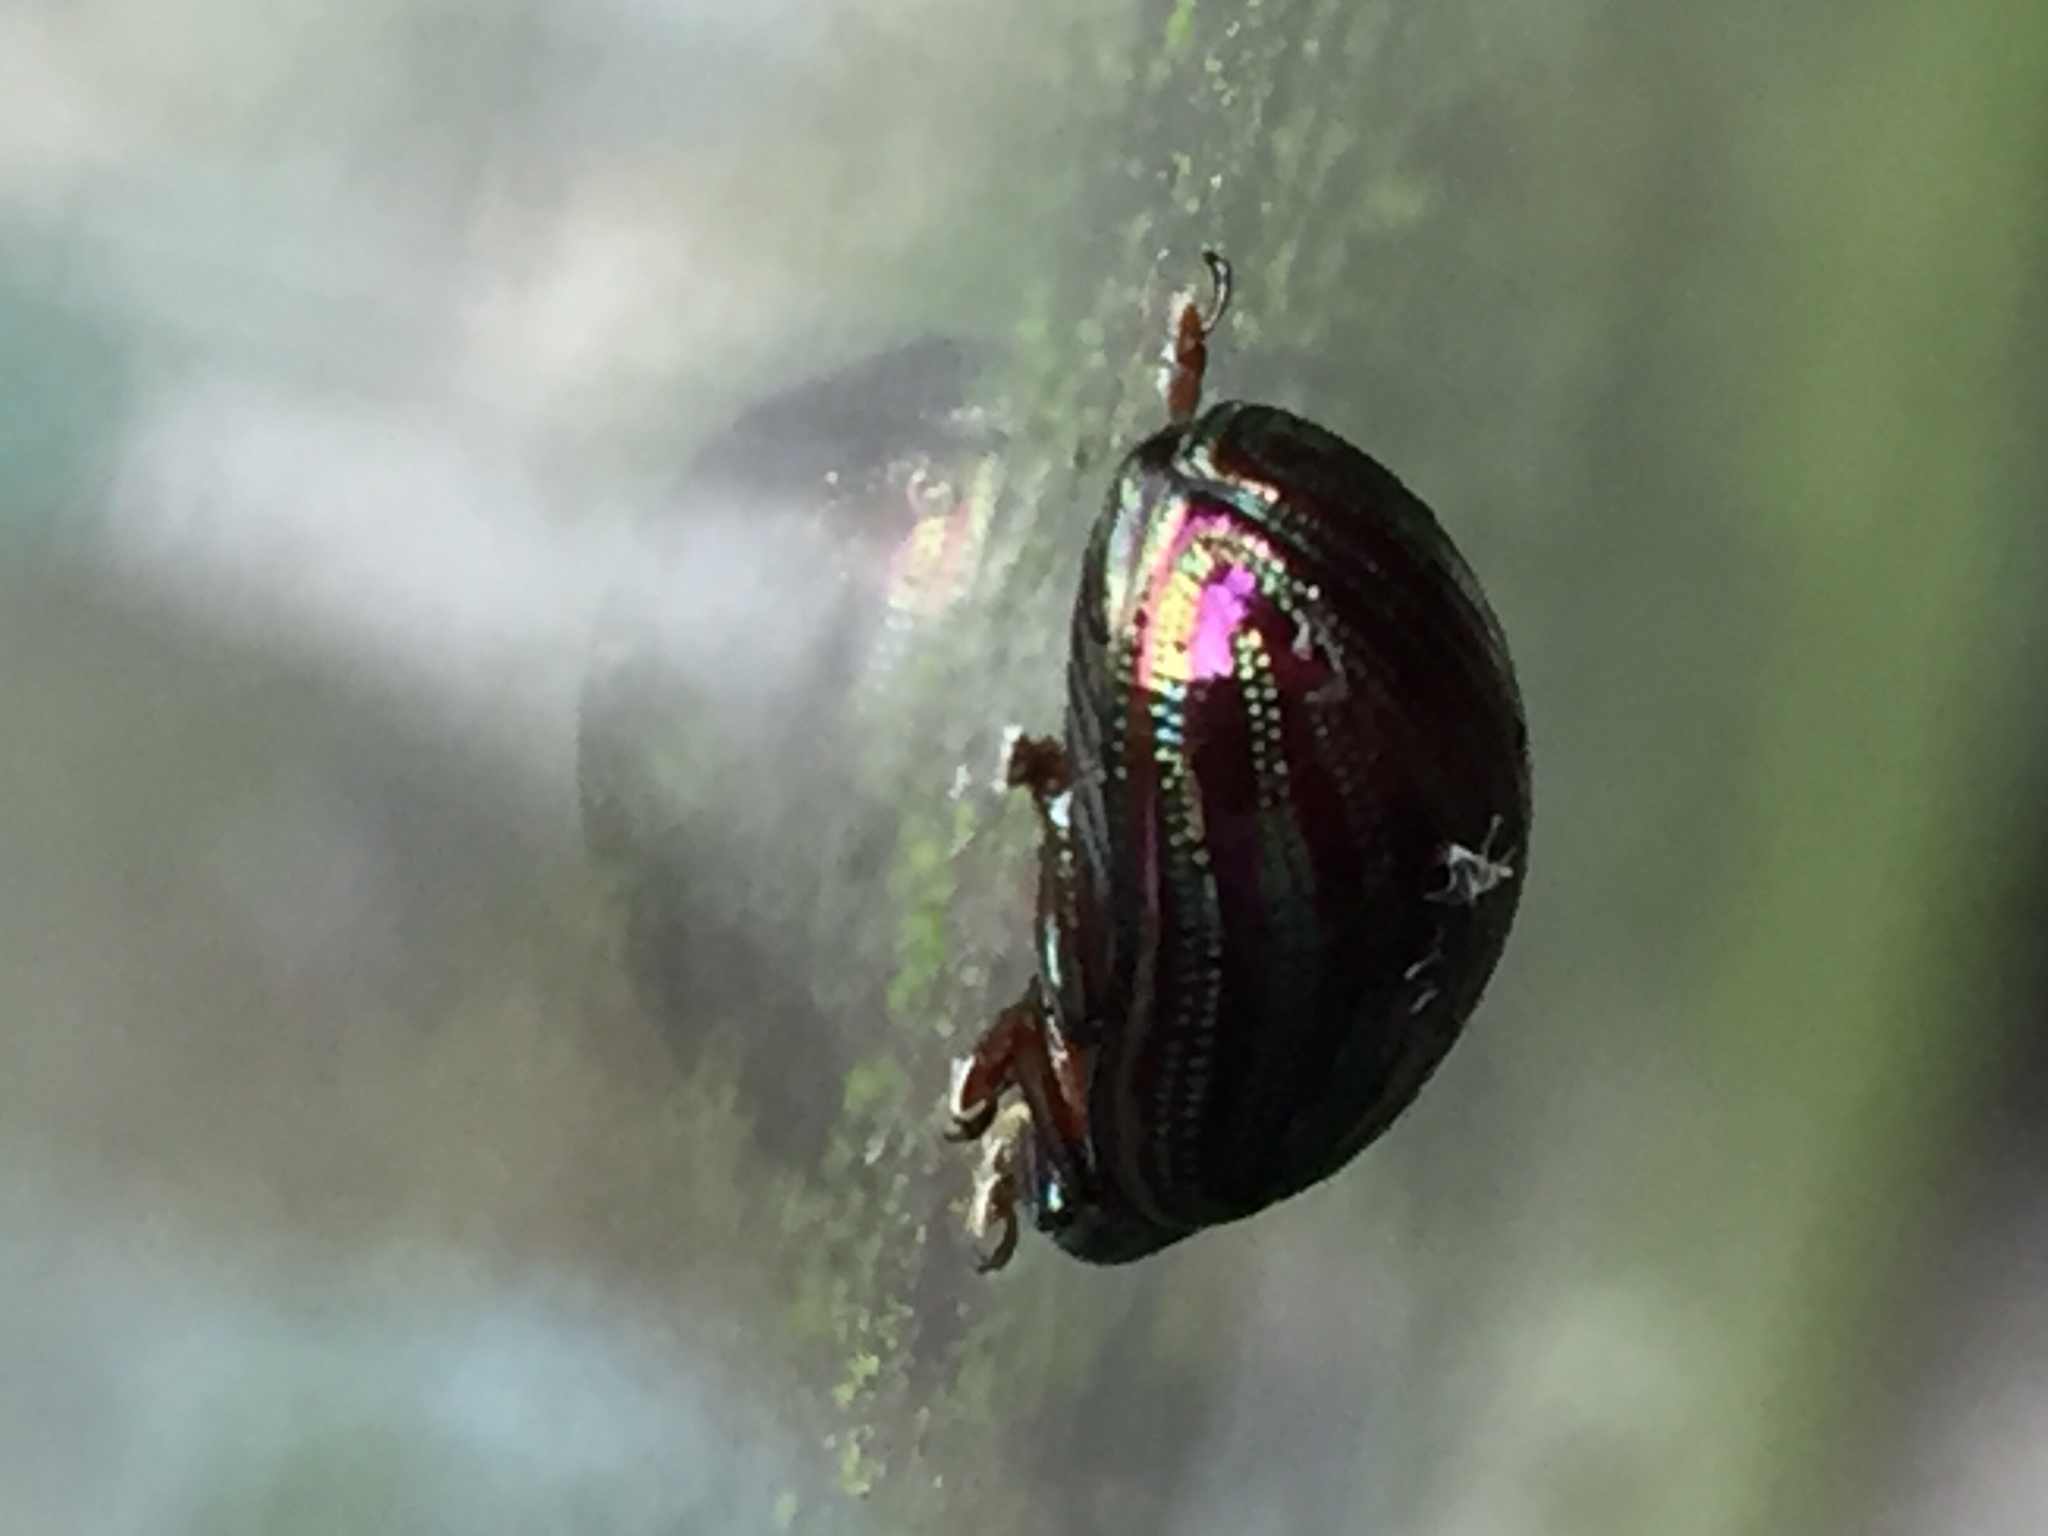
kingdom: Animalia
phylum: Arthropoda
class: Insecta
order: Coleoptera
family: Chrysomelidae
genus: Chrysolina
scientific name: Chrysolina americana
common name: Rosemary beetle
